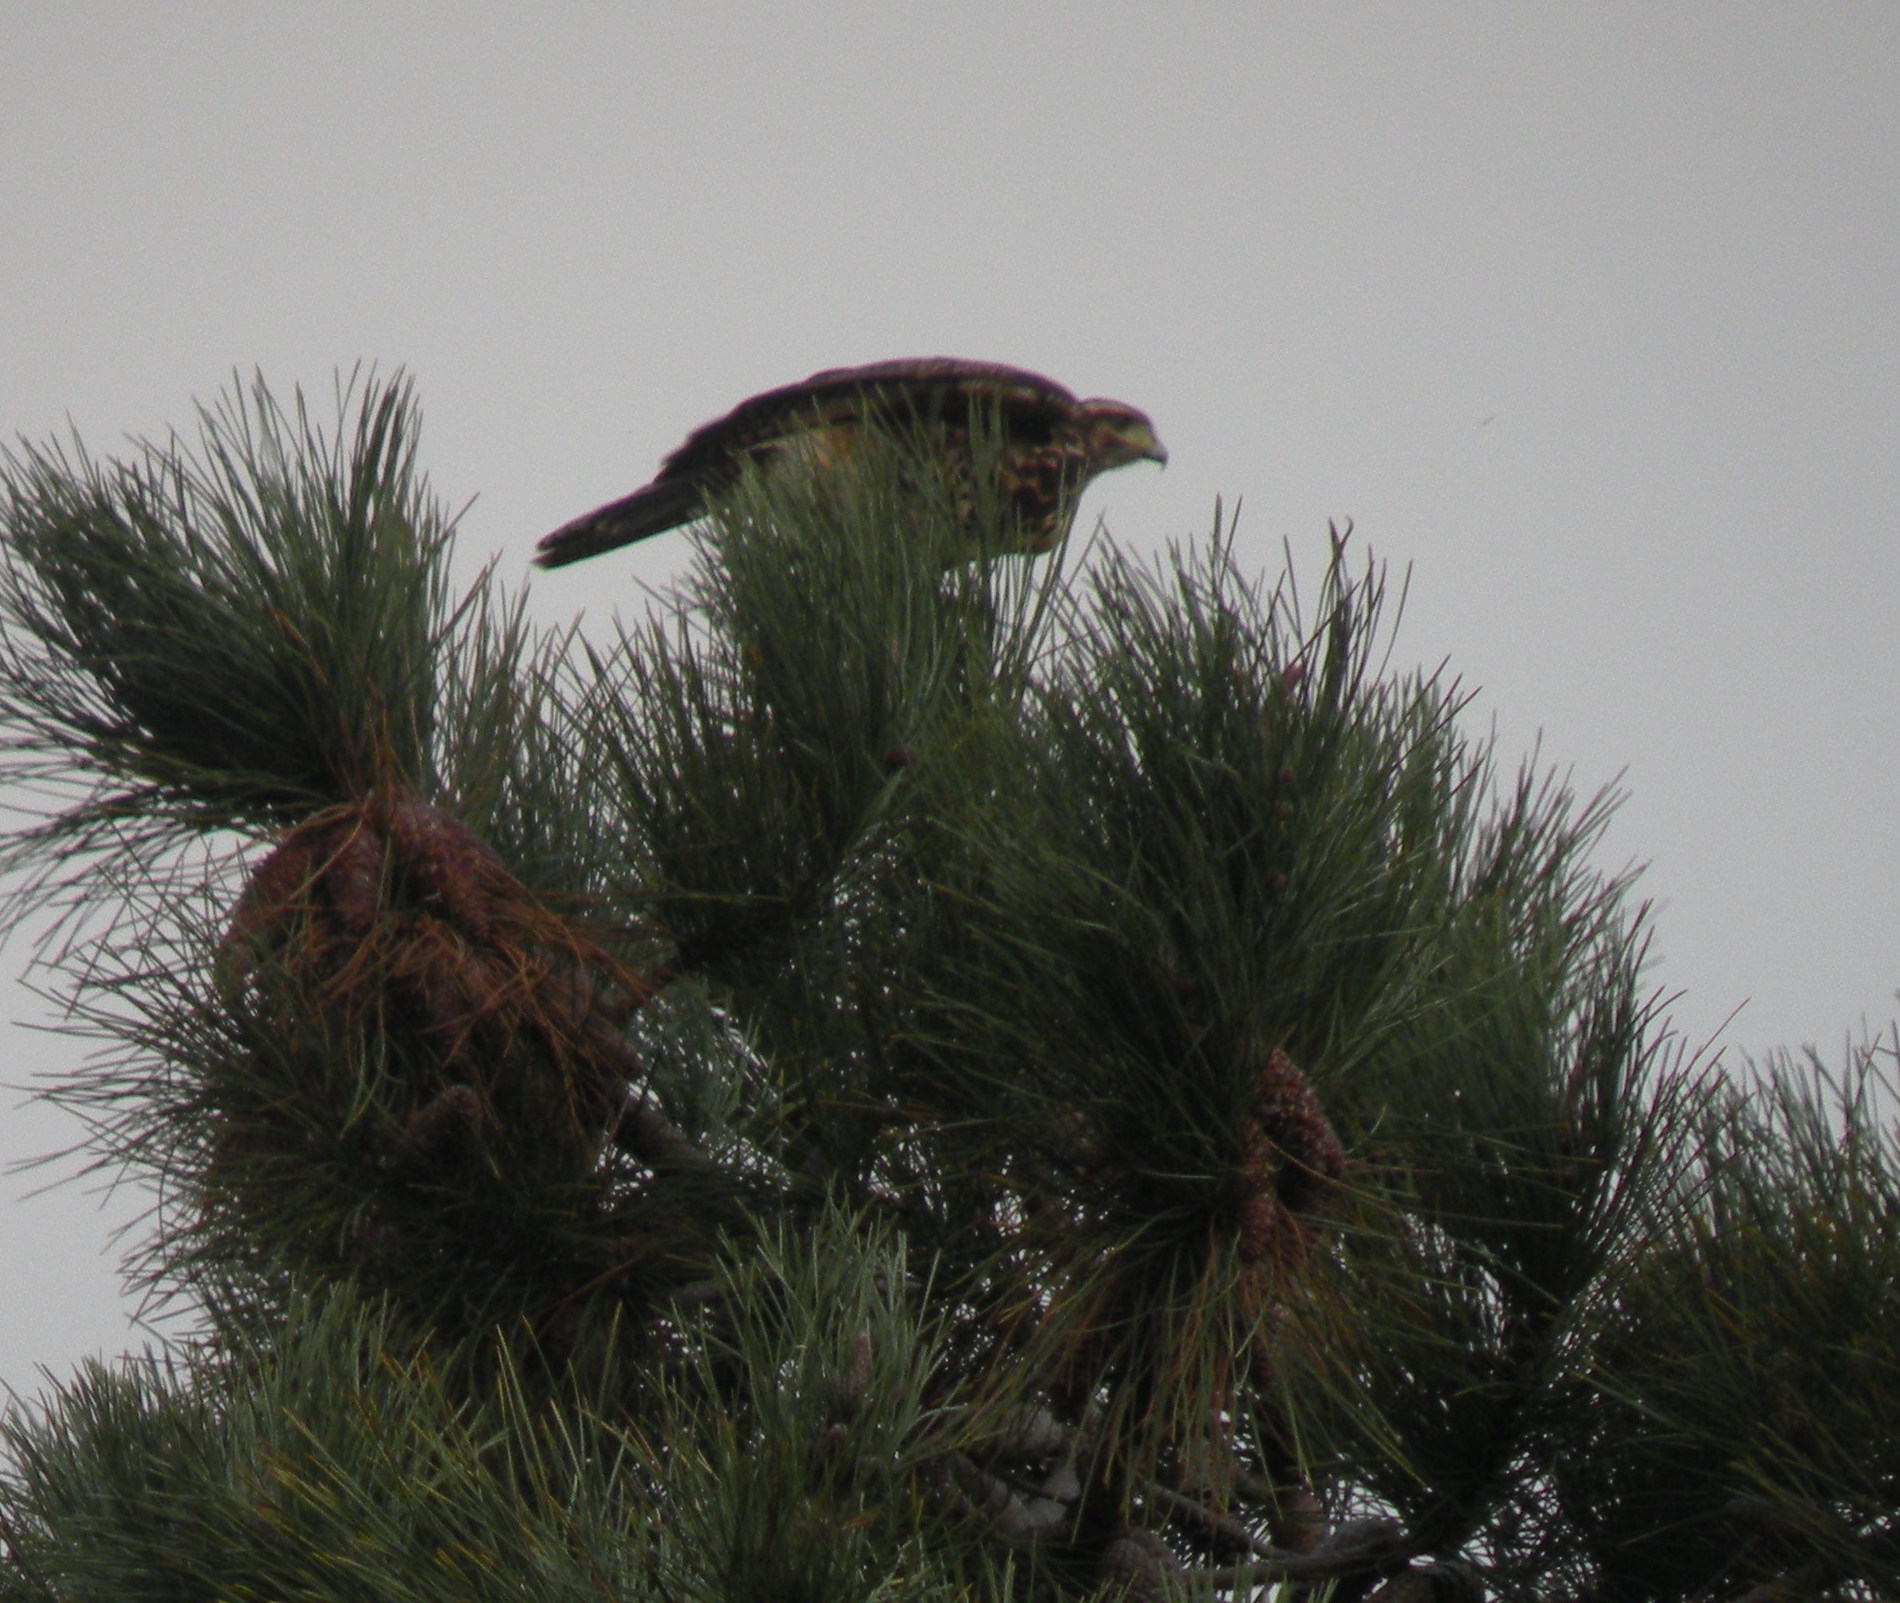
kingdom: Animalia
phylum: Chordata
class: Aves
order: Accipitriformes
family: Accipitridae
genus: Parabuteo
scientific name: Parabuteo unicinctus
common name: Harris's hawk
